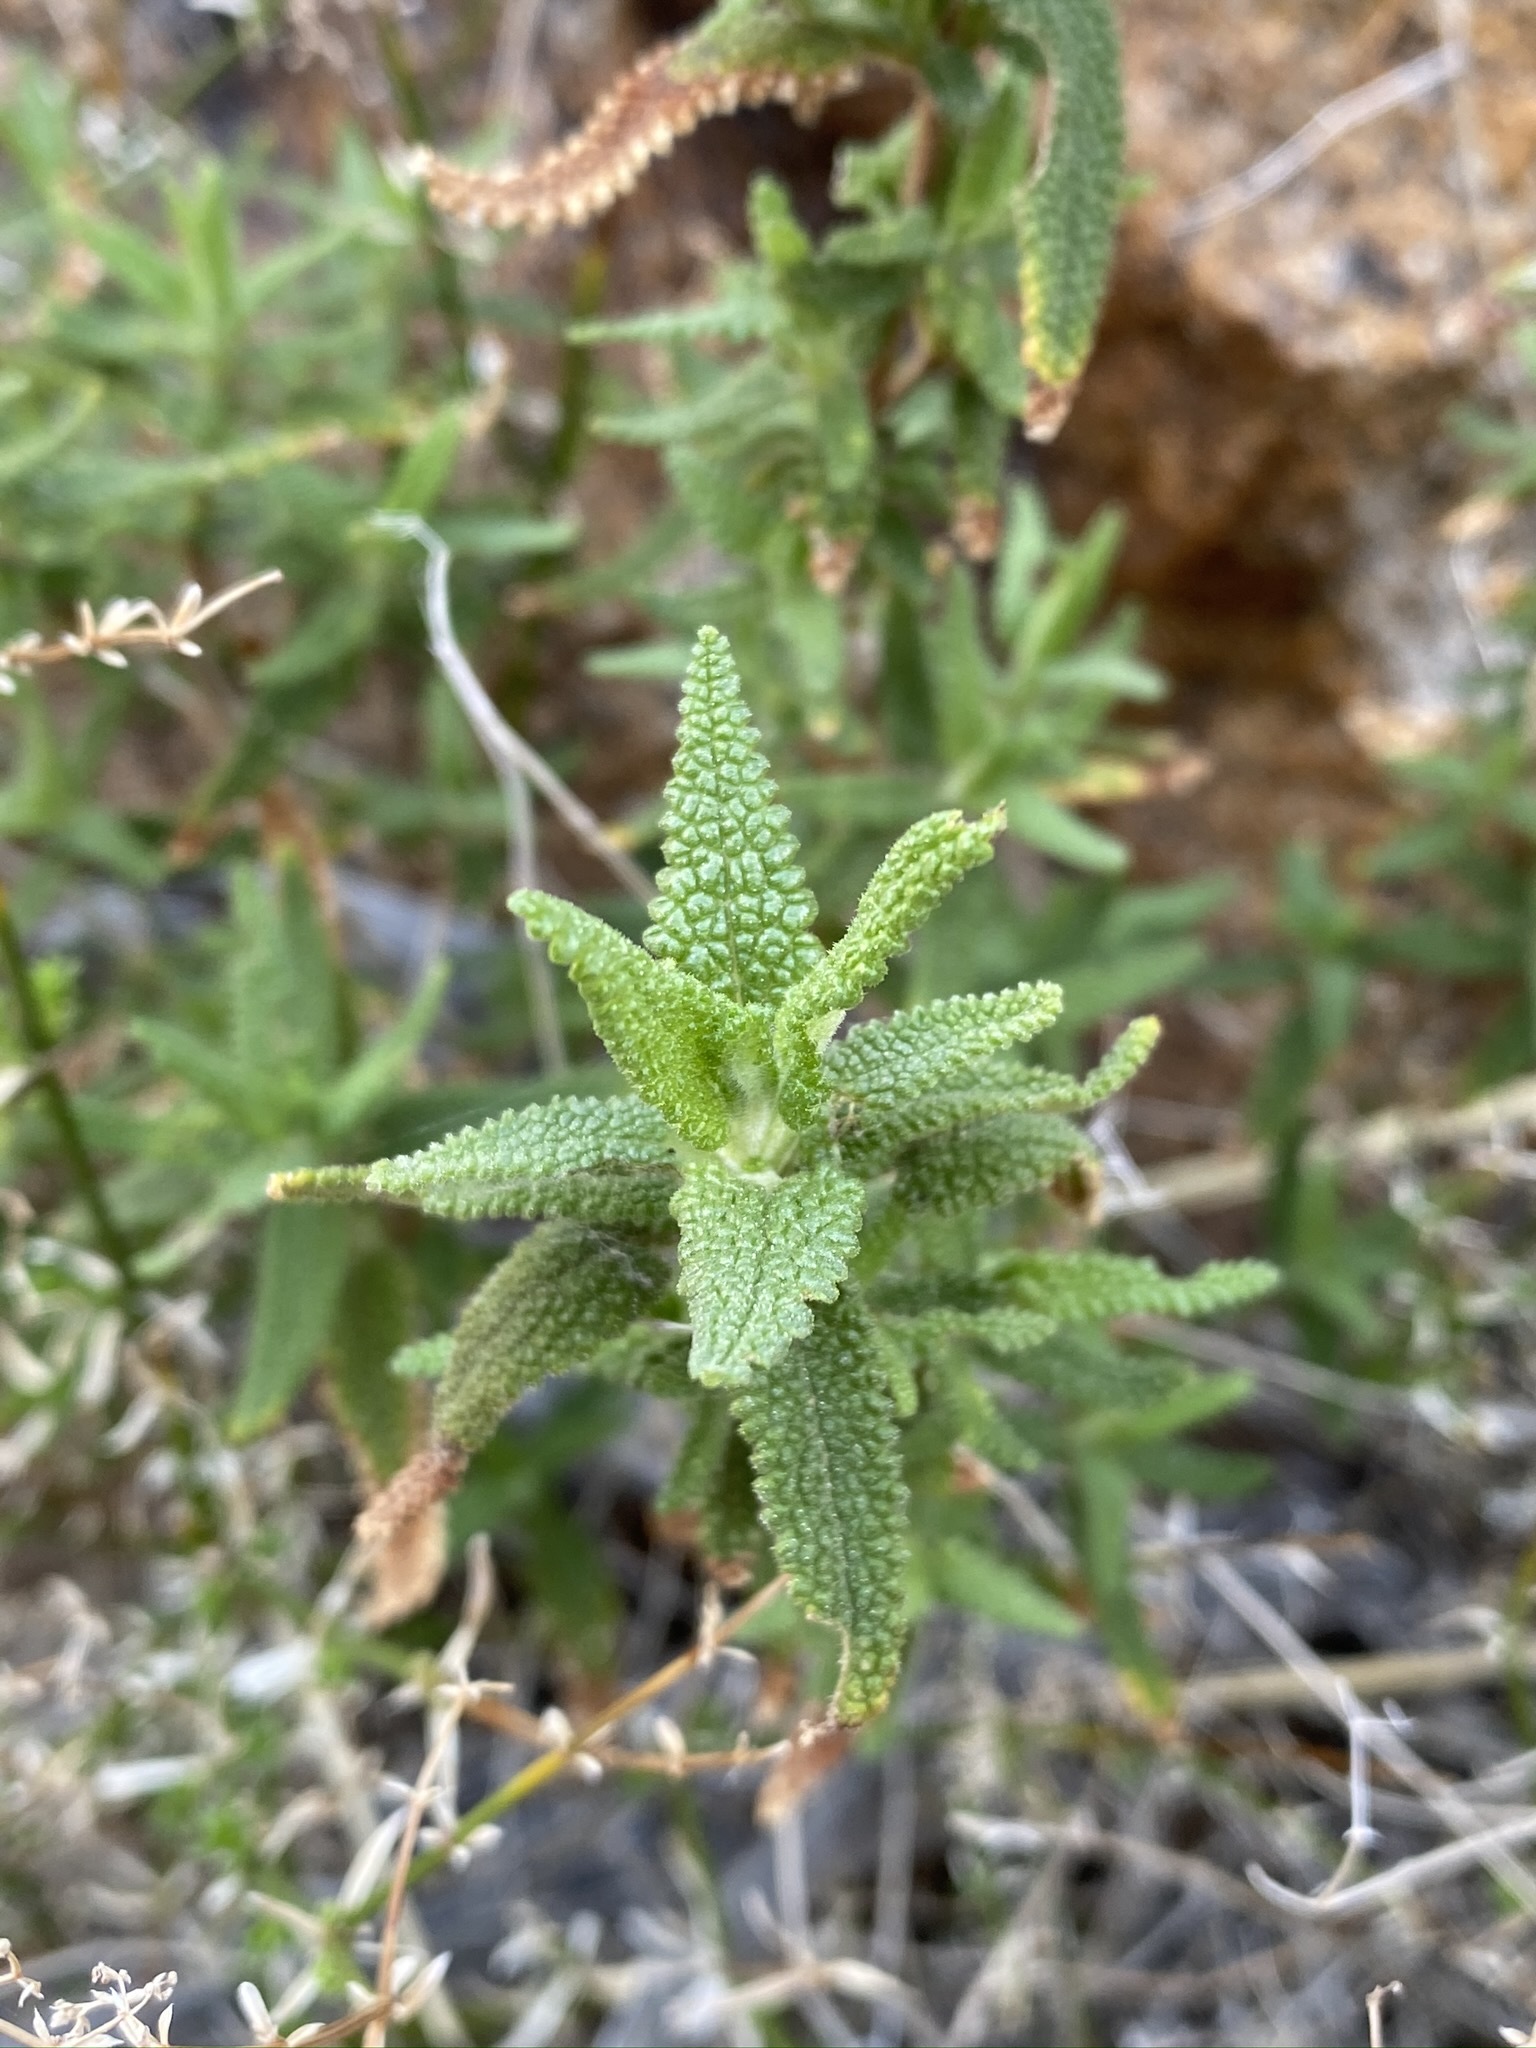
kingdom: Plantae
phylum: Tracheophyta
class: Magnoliopsida
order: Lamiales
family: Lamiaceae
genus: Salvia
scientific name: Salvia eremostachya
